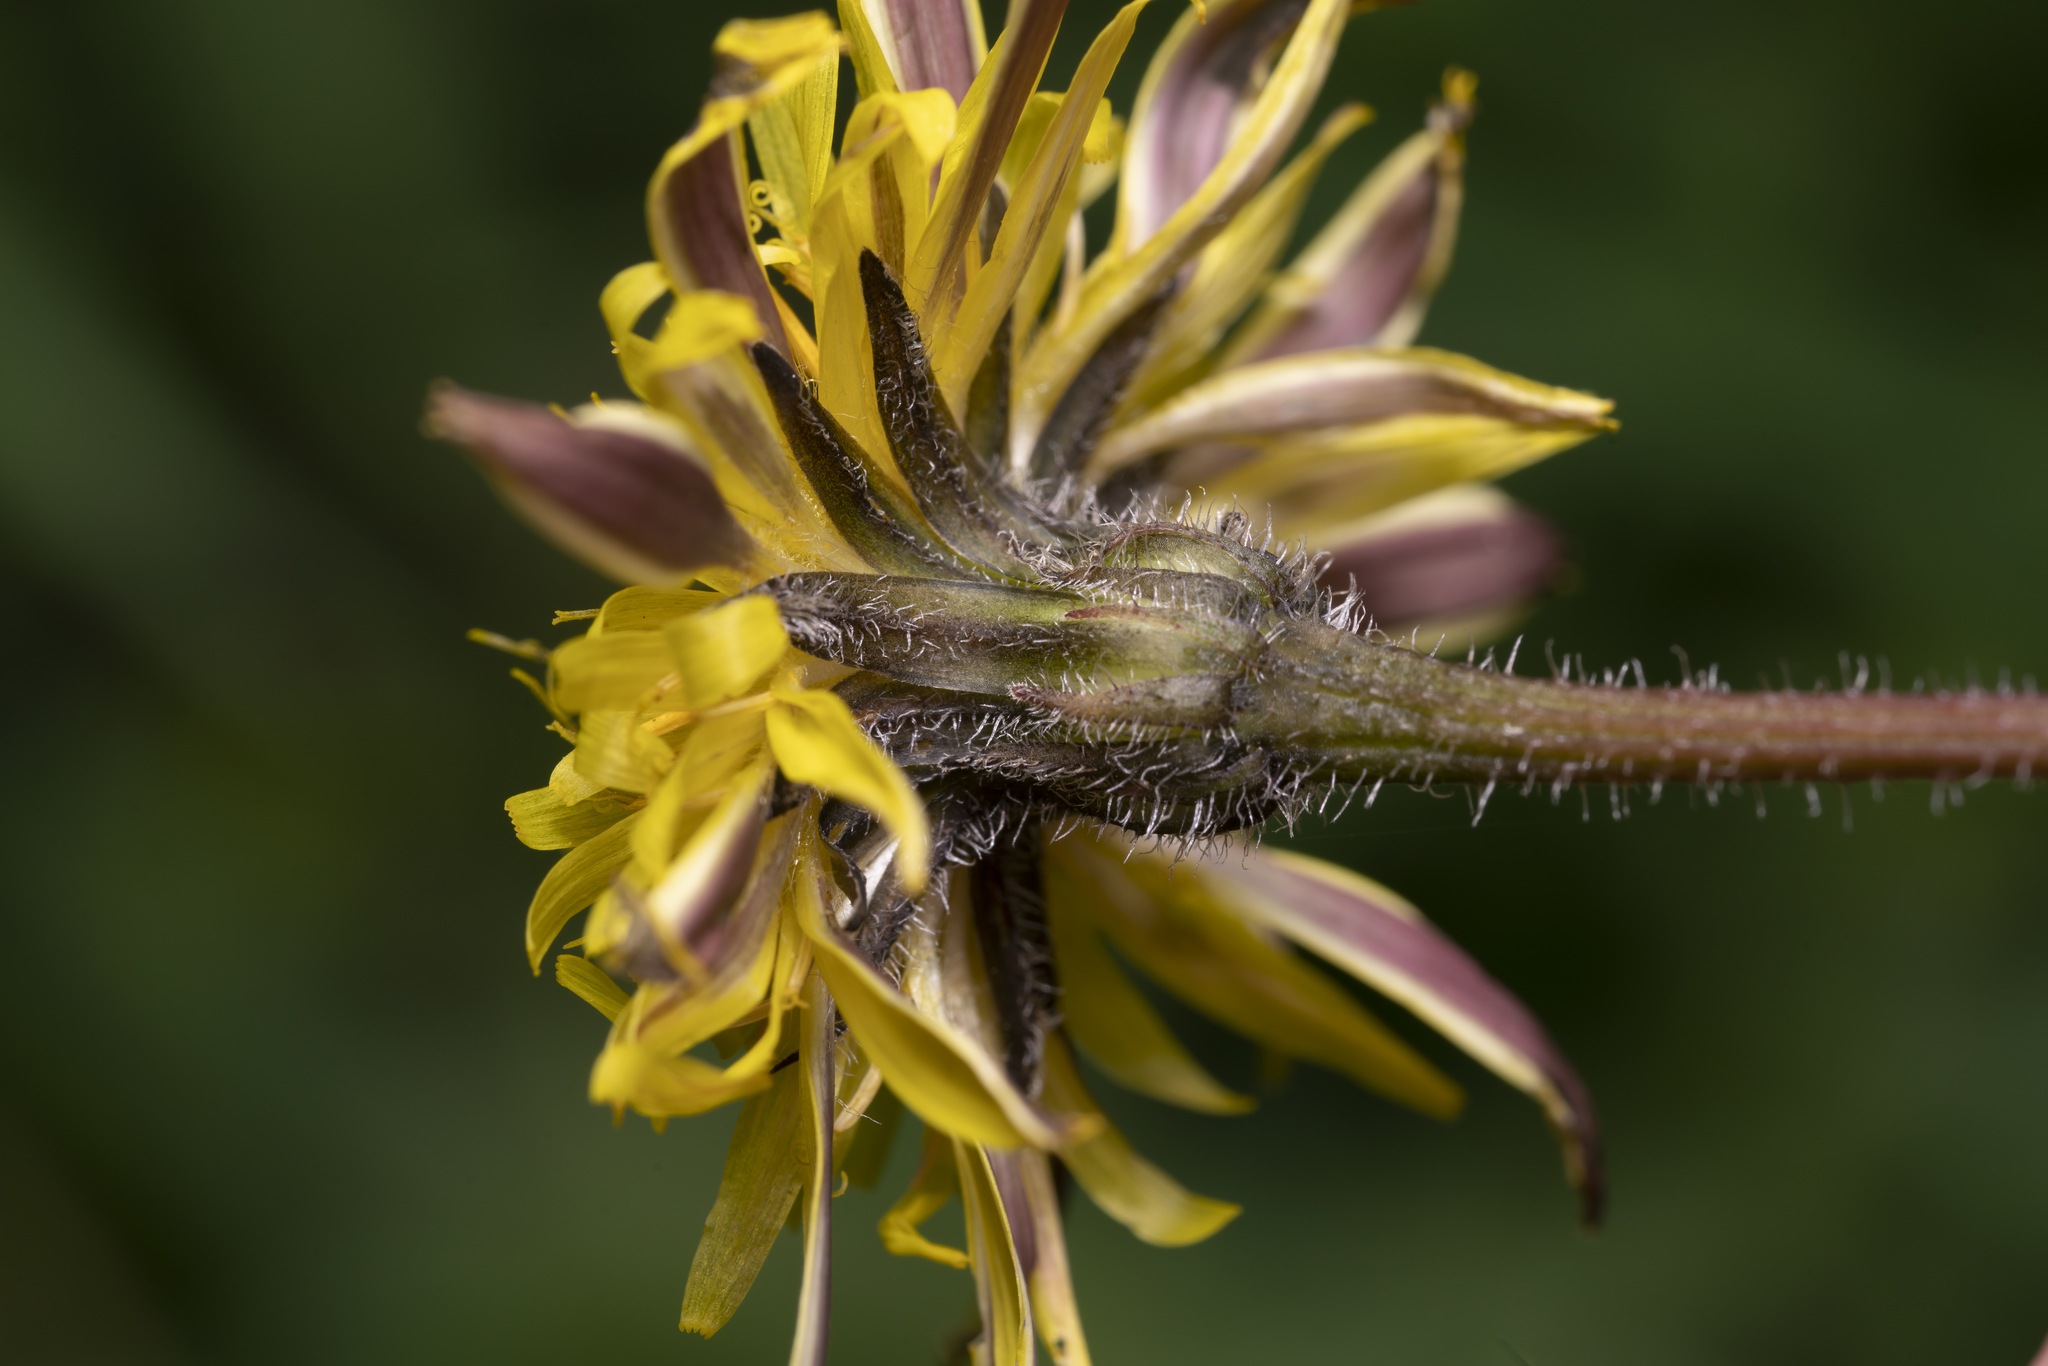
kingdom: Plantae
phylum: Tracheophyta
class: Magnoliopsida
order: Asterales
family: Asteraceae
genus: Leontodon
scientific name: Leontodon tuberosus
